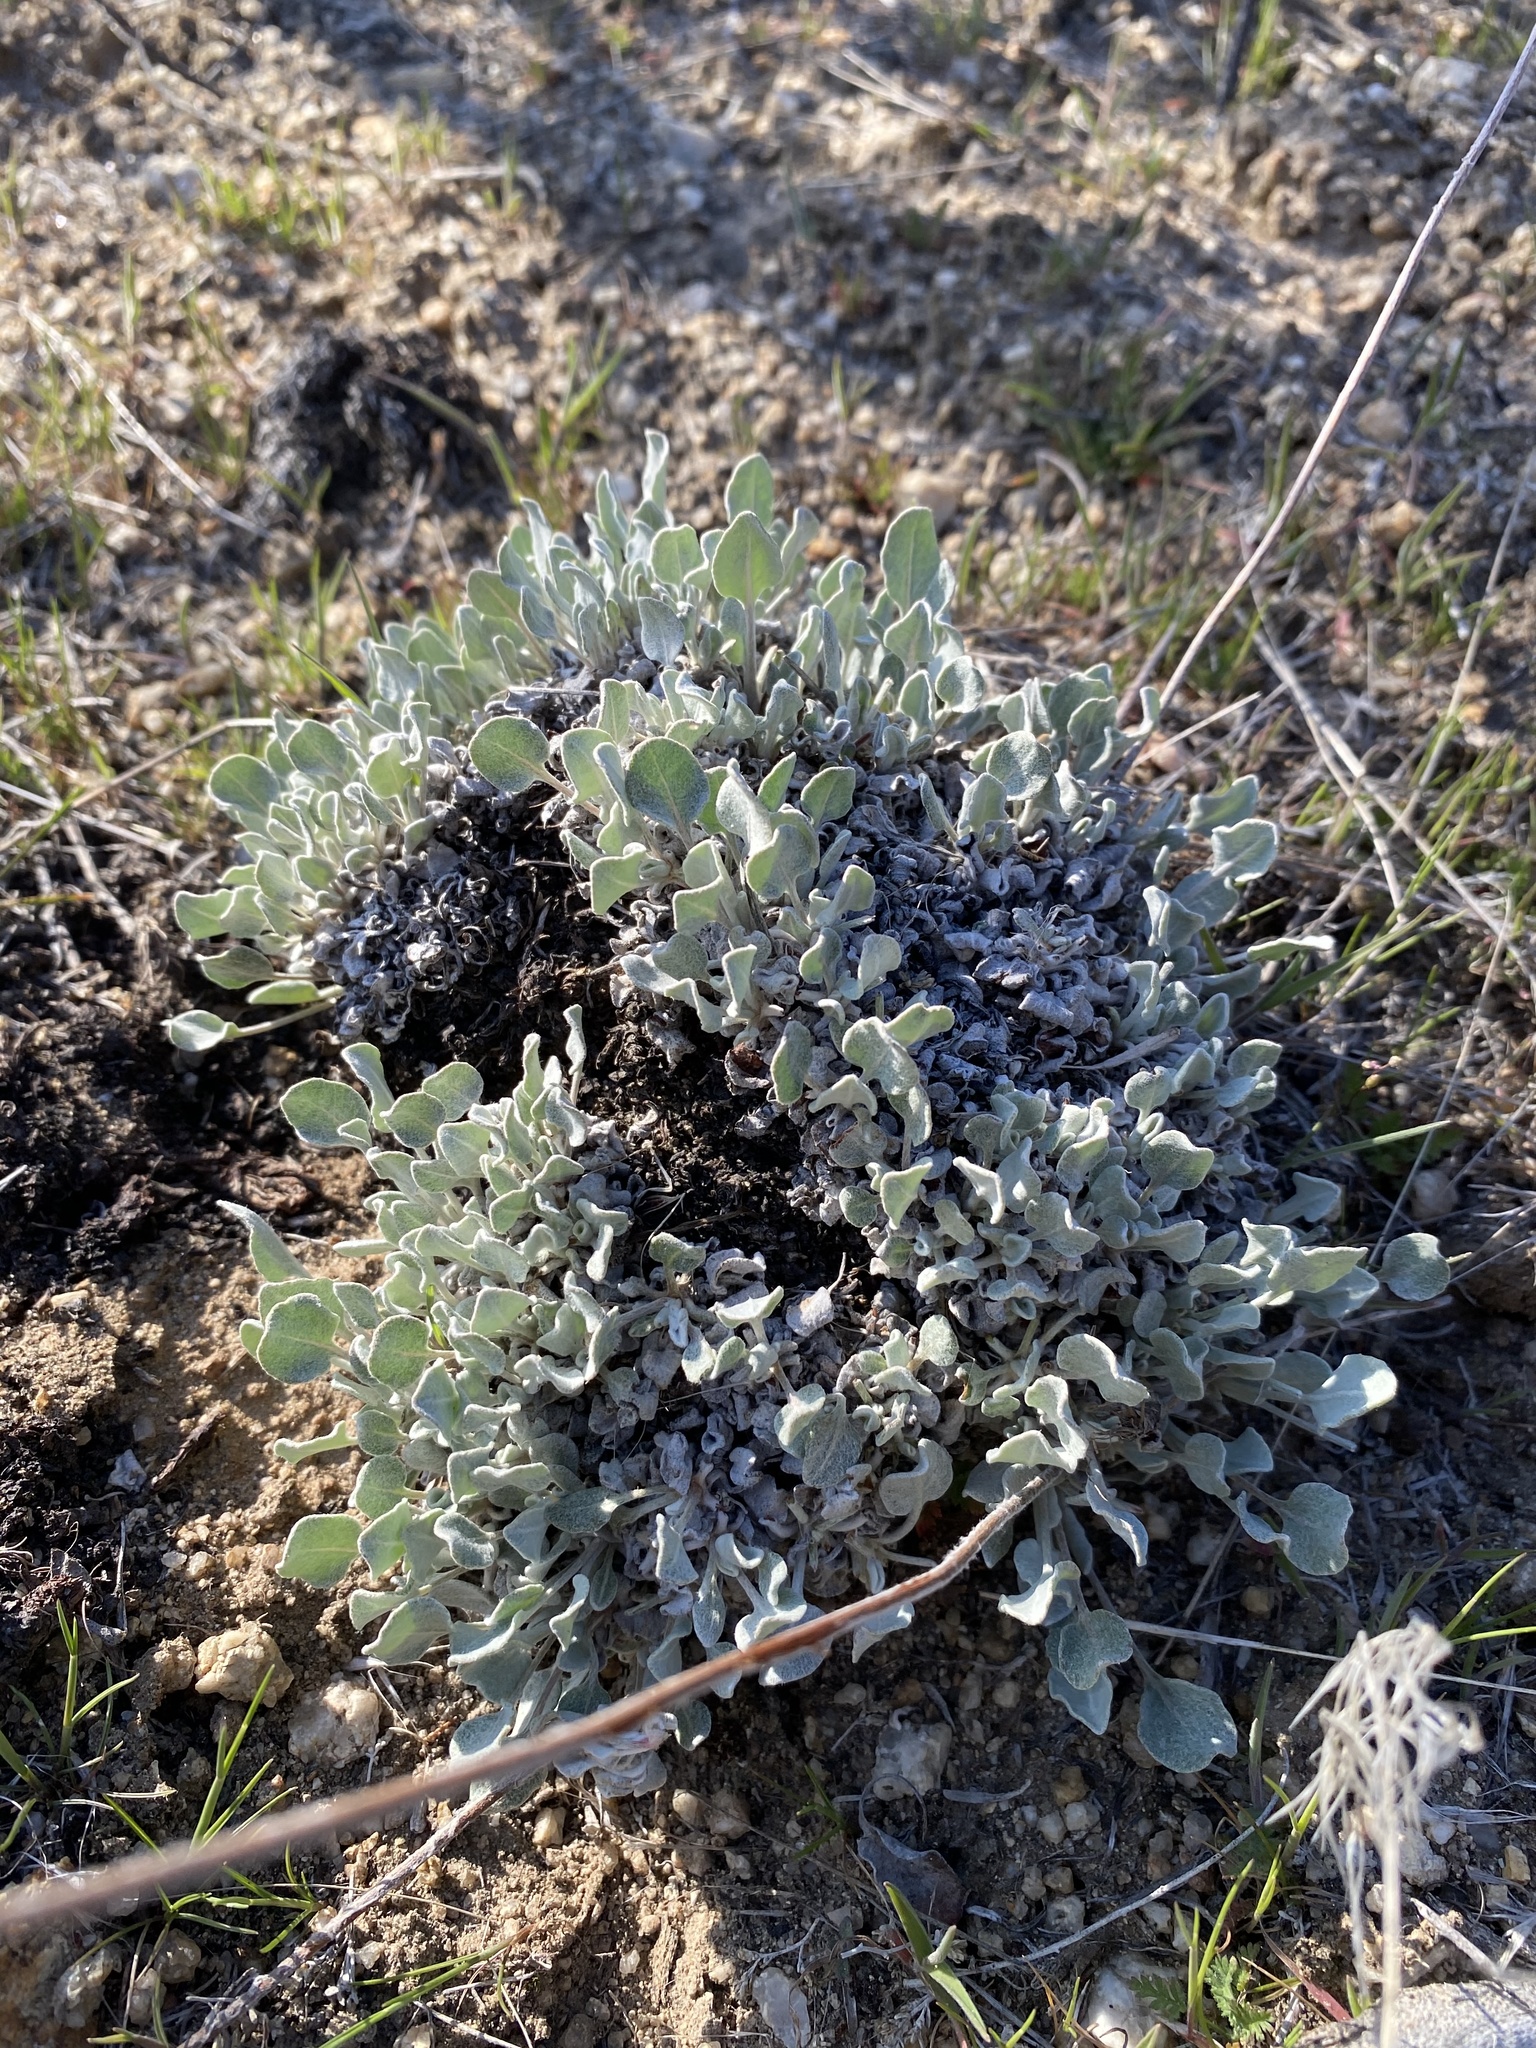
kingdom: Plantae
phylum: Tracheophyta
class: Magnoliopsida
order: Caryophyllales
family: Polygonaceae
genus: Eriogonum
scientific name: Eriogonum ovalifolium
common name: Cushion buckwheat
